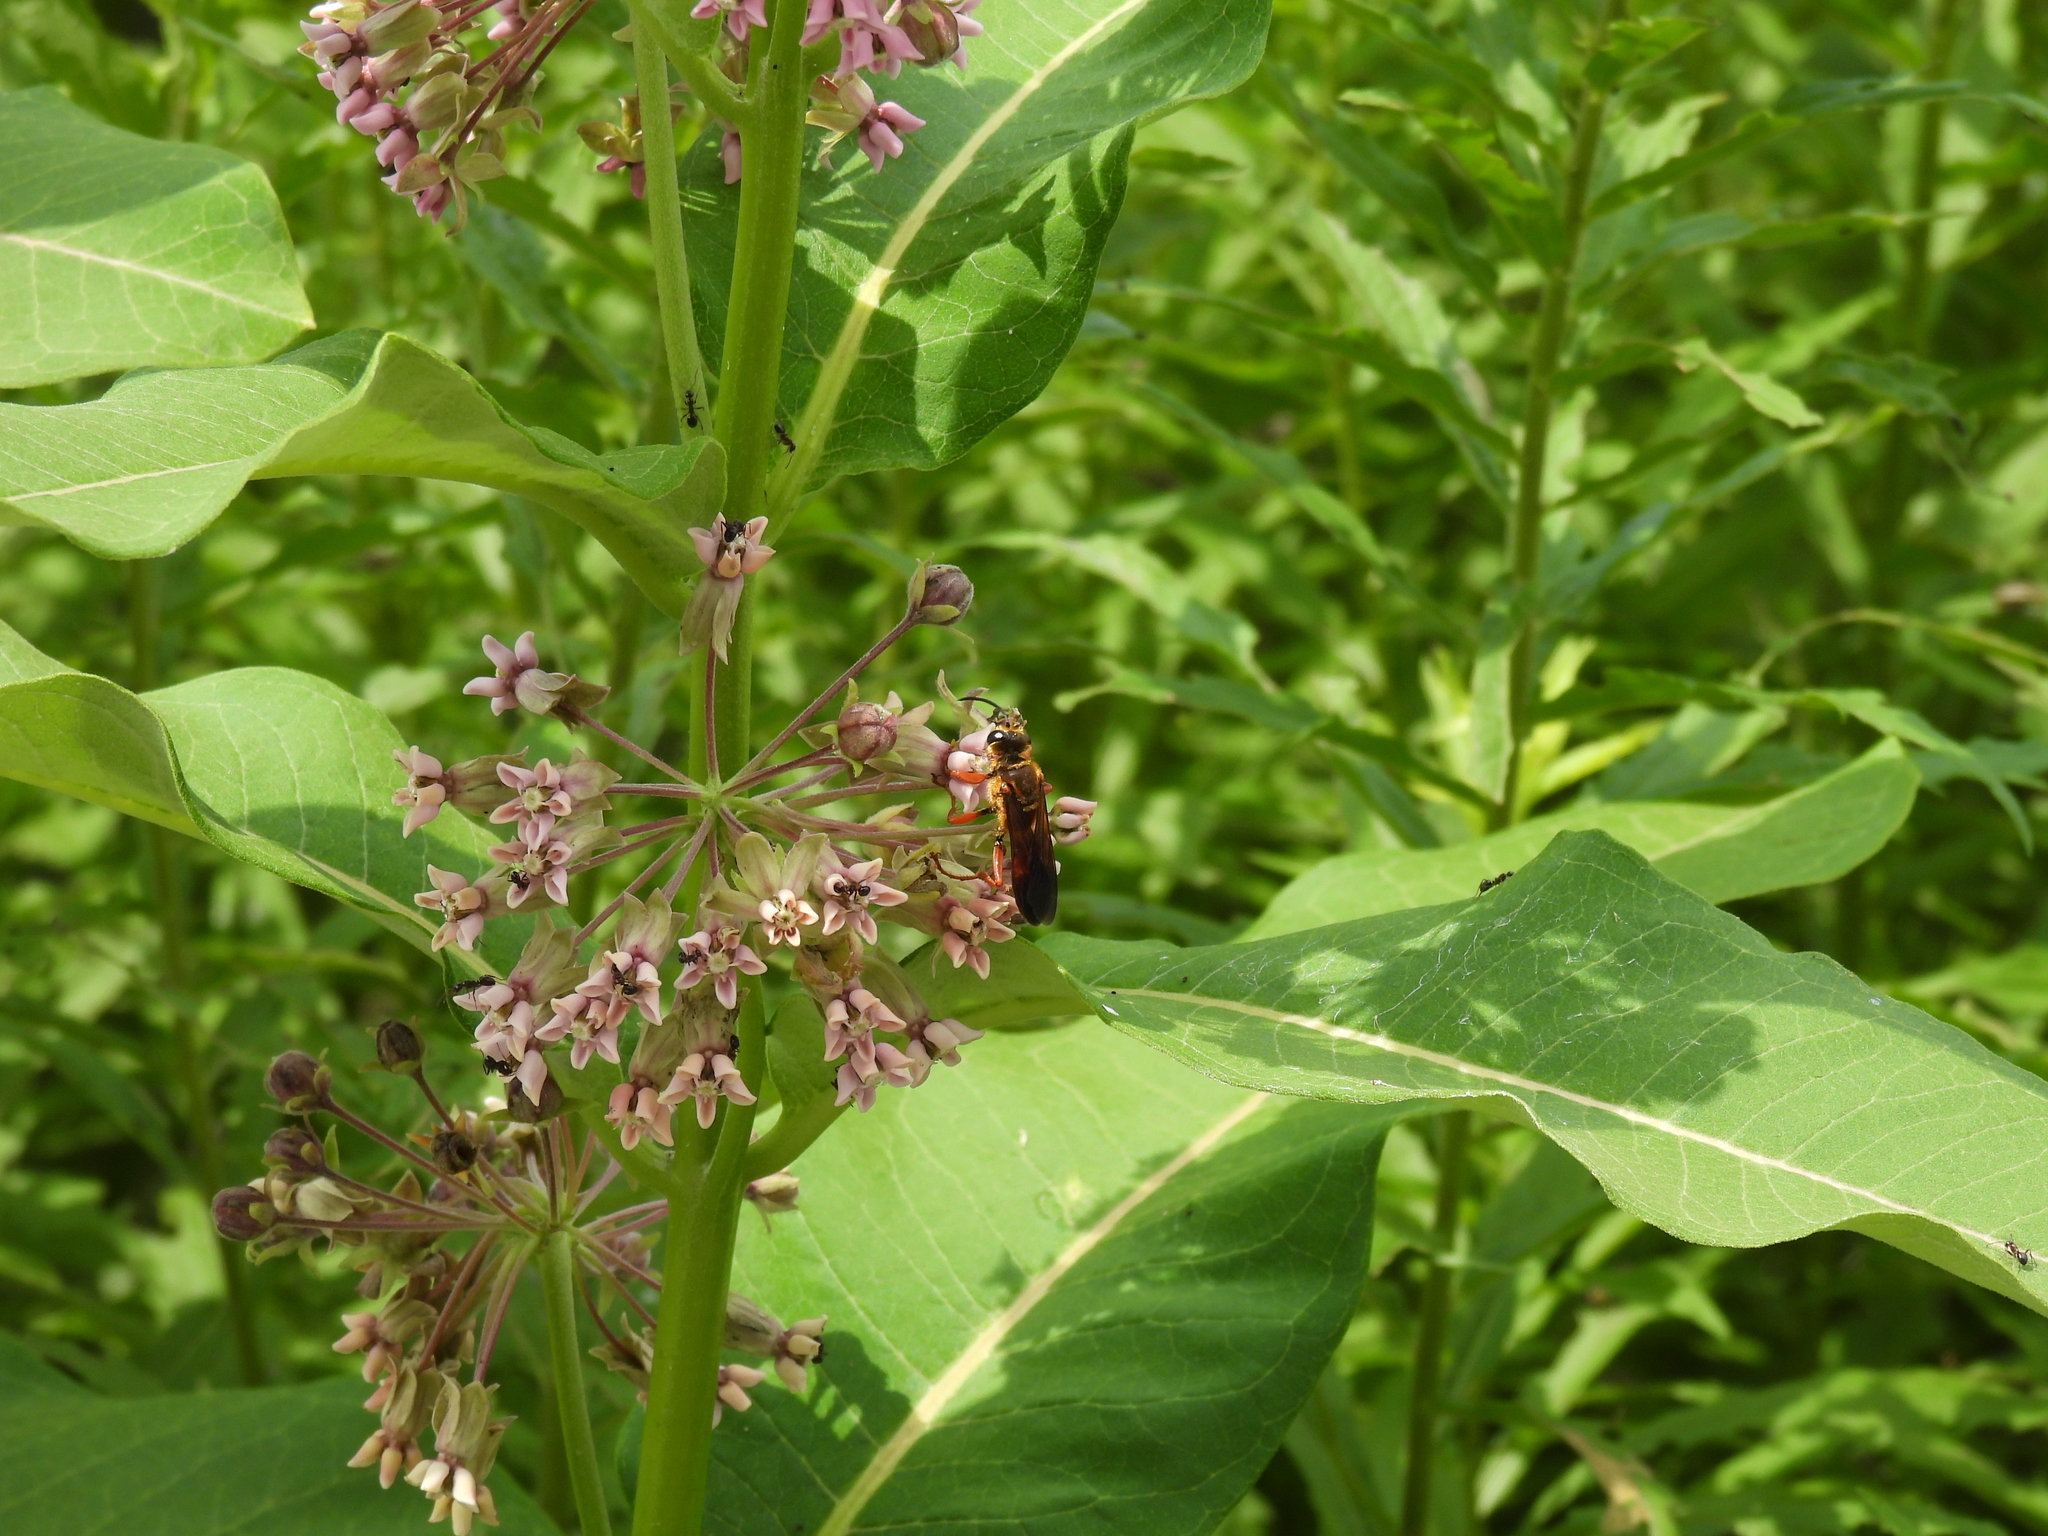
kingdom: Animalia
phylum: Arthropoda
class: Insecta
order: Hymenoptera
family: Sphecidae
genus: Sphex
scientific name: Sphex ichneumoneus
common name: Great golden digger wasp
